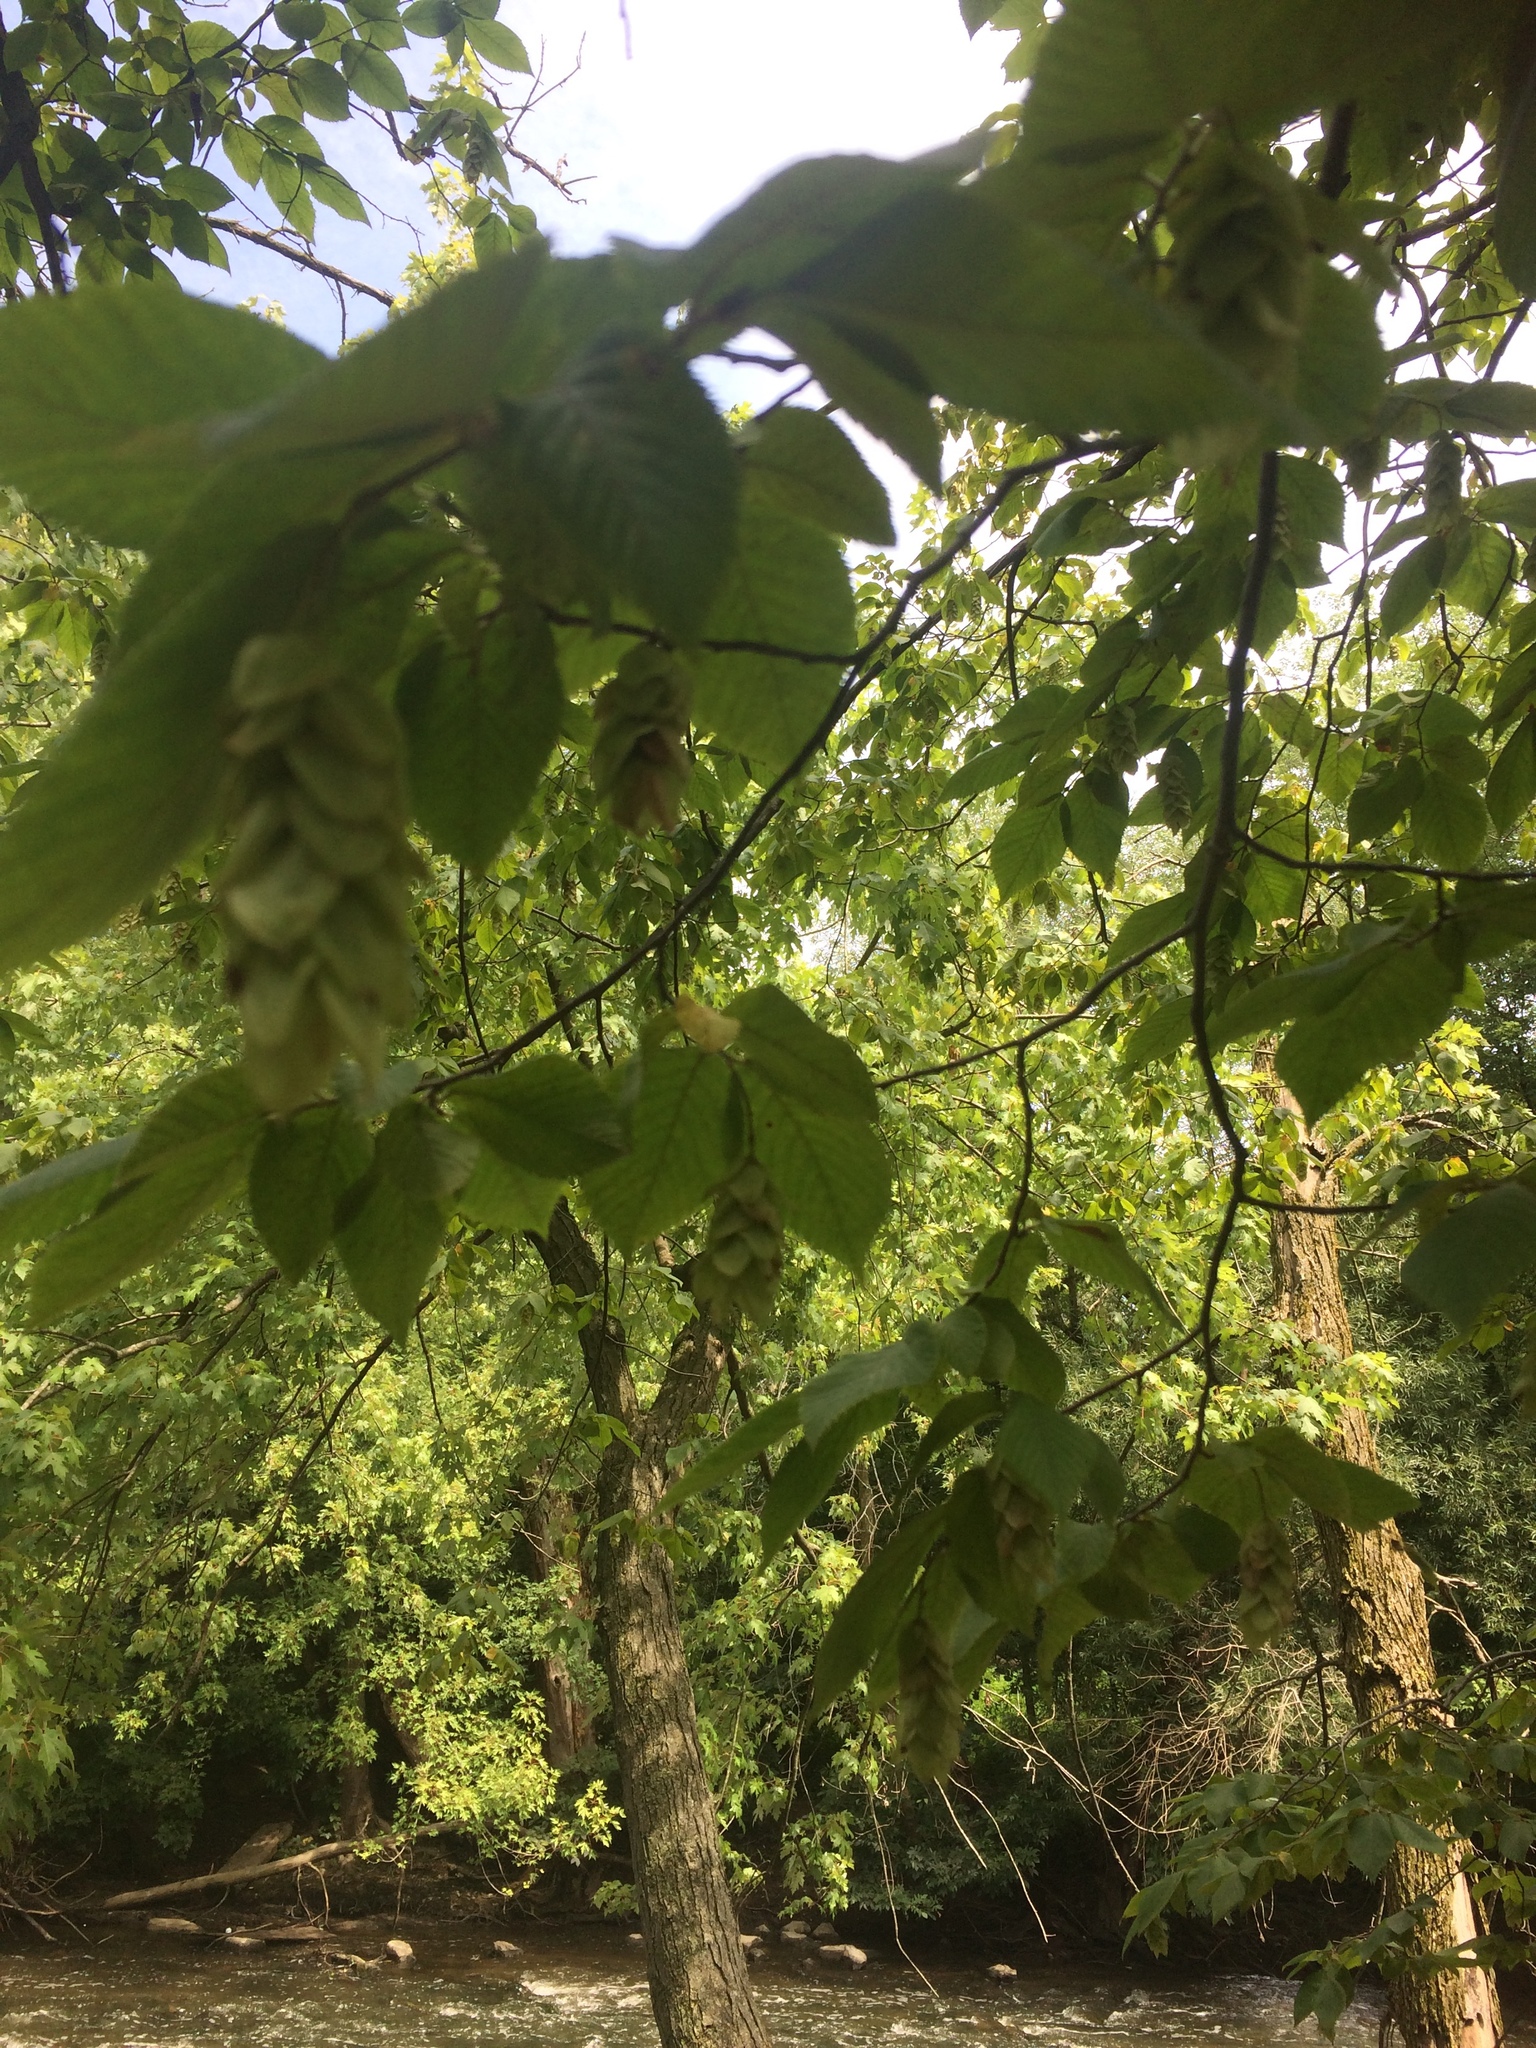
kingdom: Plantae
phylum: Tracheophyta
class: Magnoliopsida
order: Fagales
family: Betulaceae
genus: Ostrya
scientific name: Ostrya virginiana
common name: Ironwood
